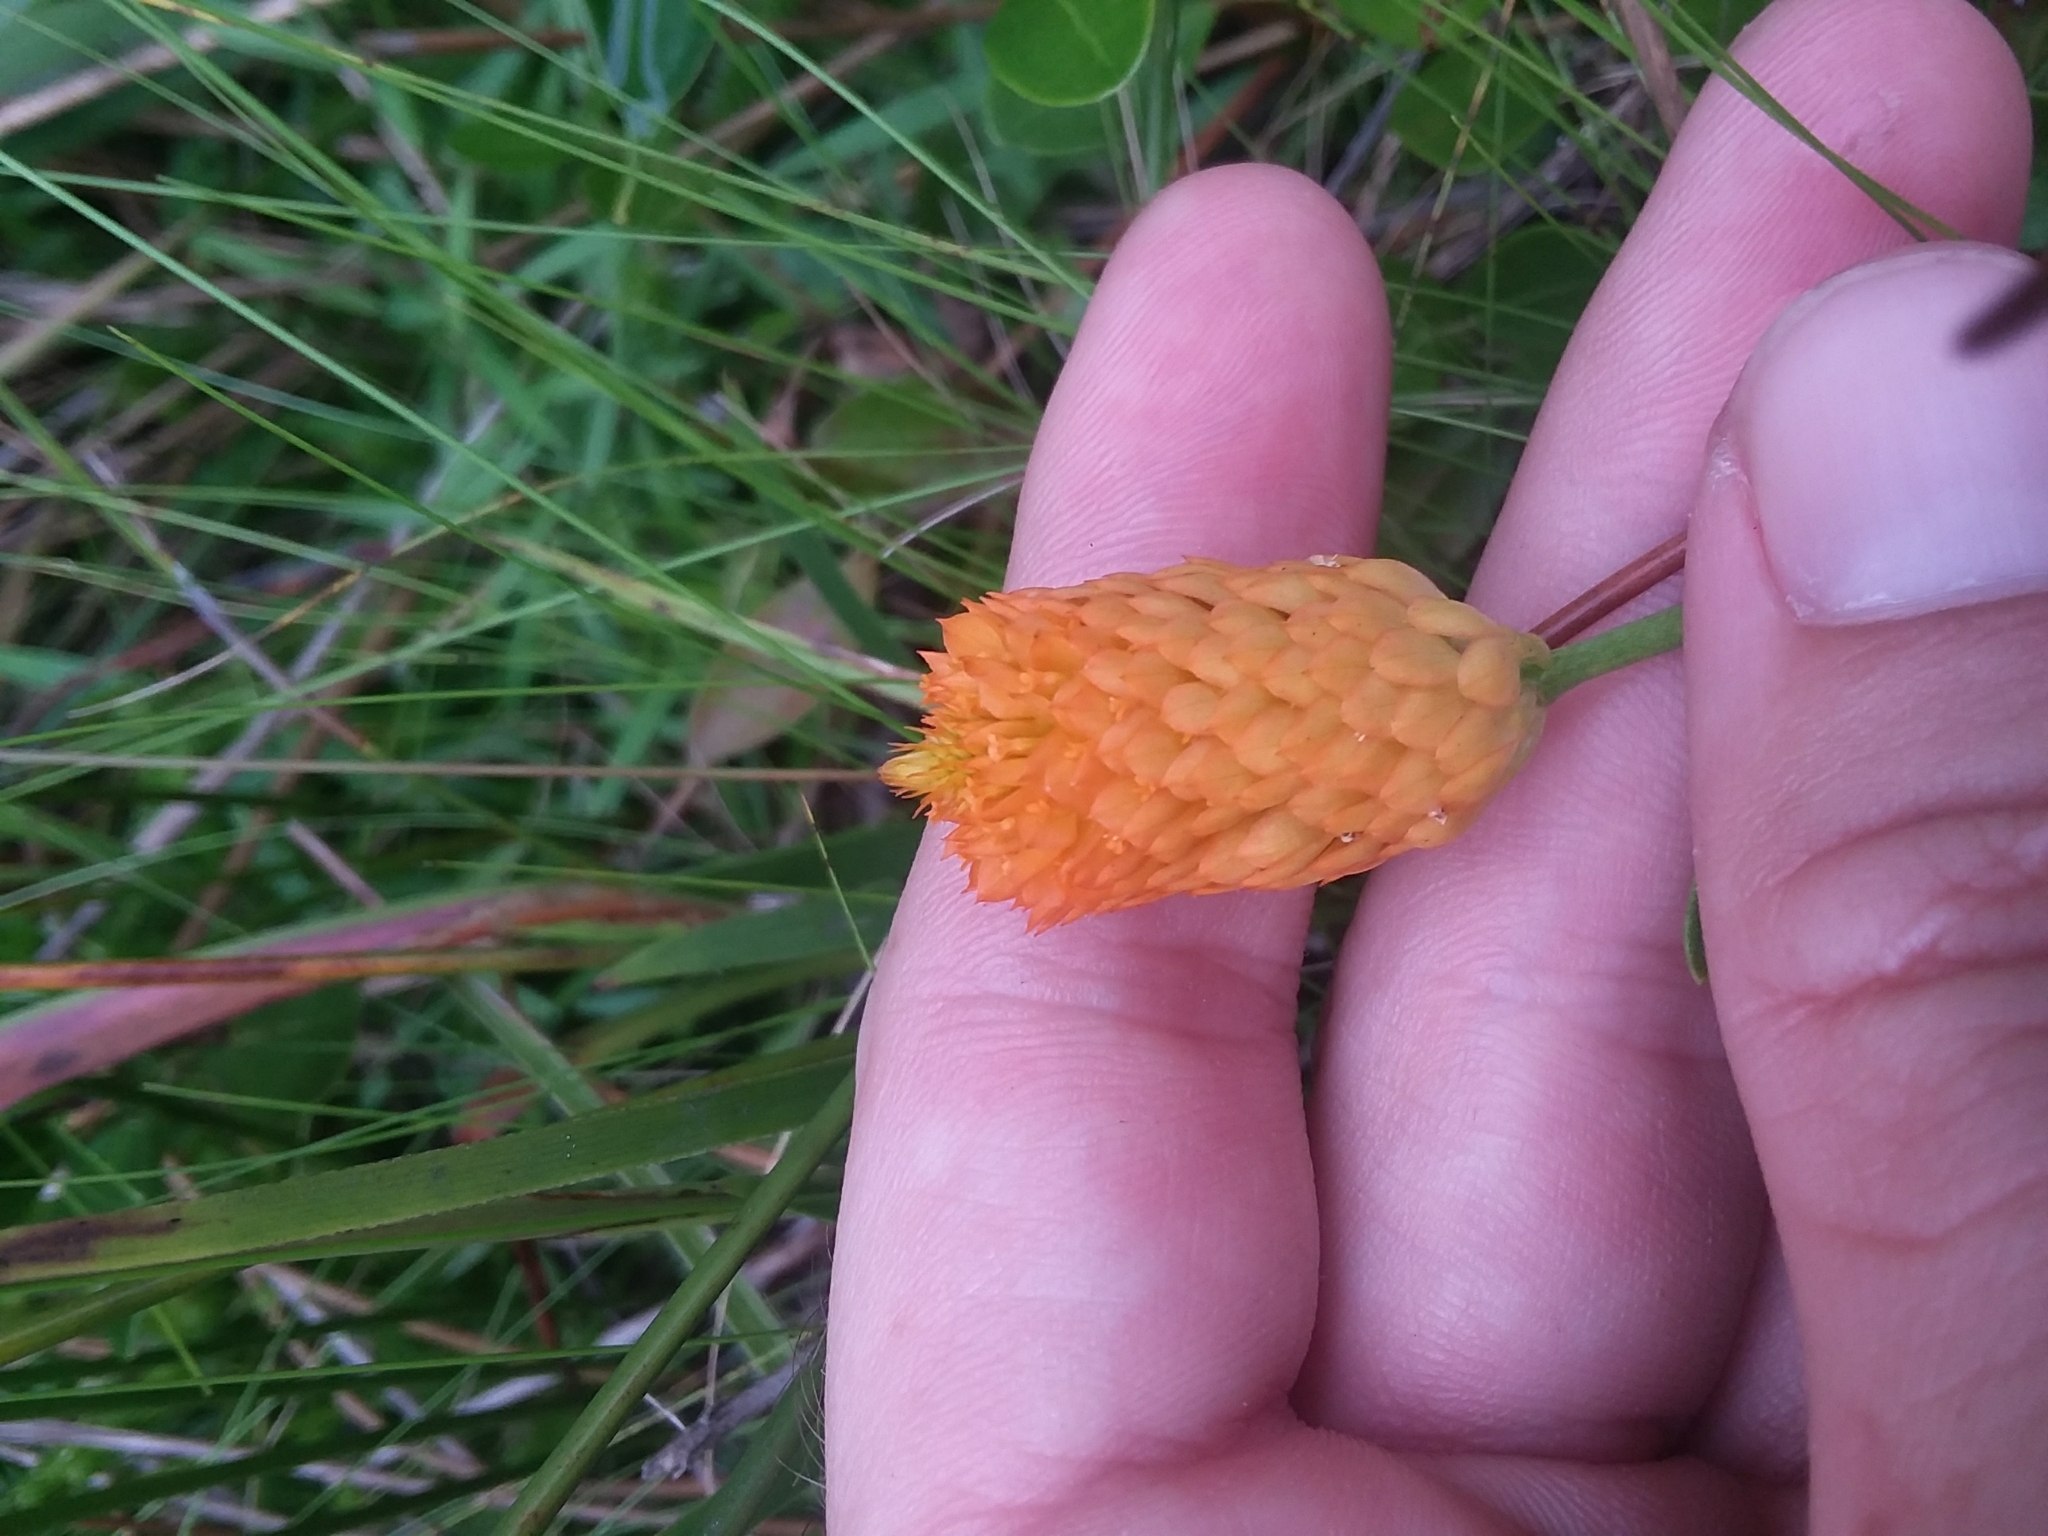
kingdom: Plantae
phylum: Tracheophyta
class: Magnoliopsida
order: Fabales
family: Polygalaceae
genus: Polygala
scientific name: Polygala lutea
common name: Orange milkwort
